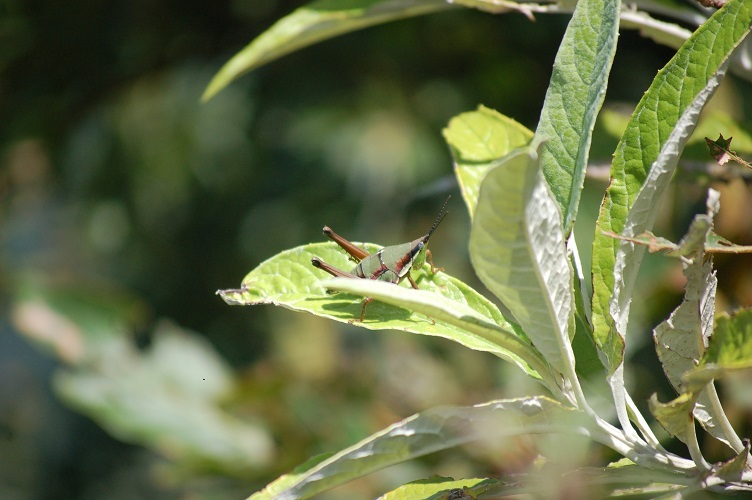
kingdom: Animalia
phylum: Arthropoda
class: Insecta
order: Orthoptera
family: Pyrgomorphidae
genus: Sphenarium
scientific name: Sphenarium histrio
